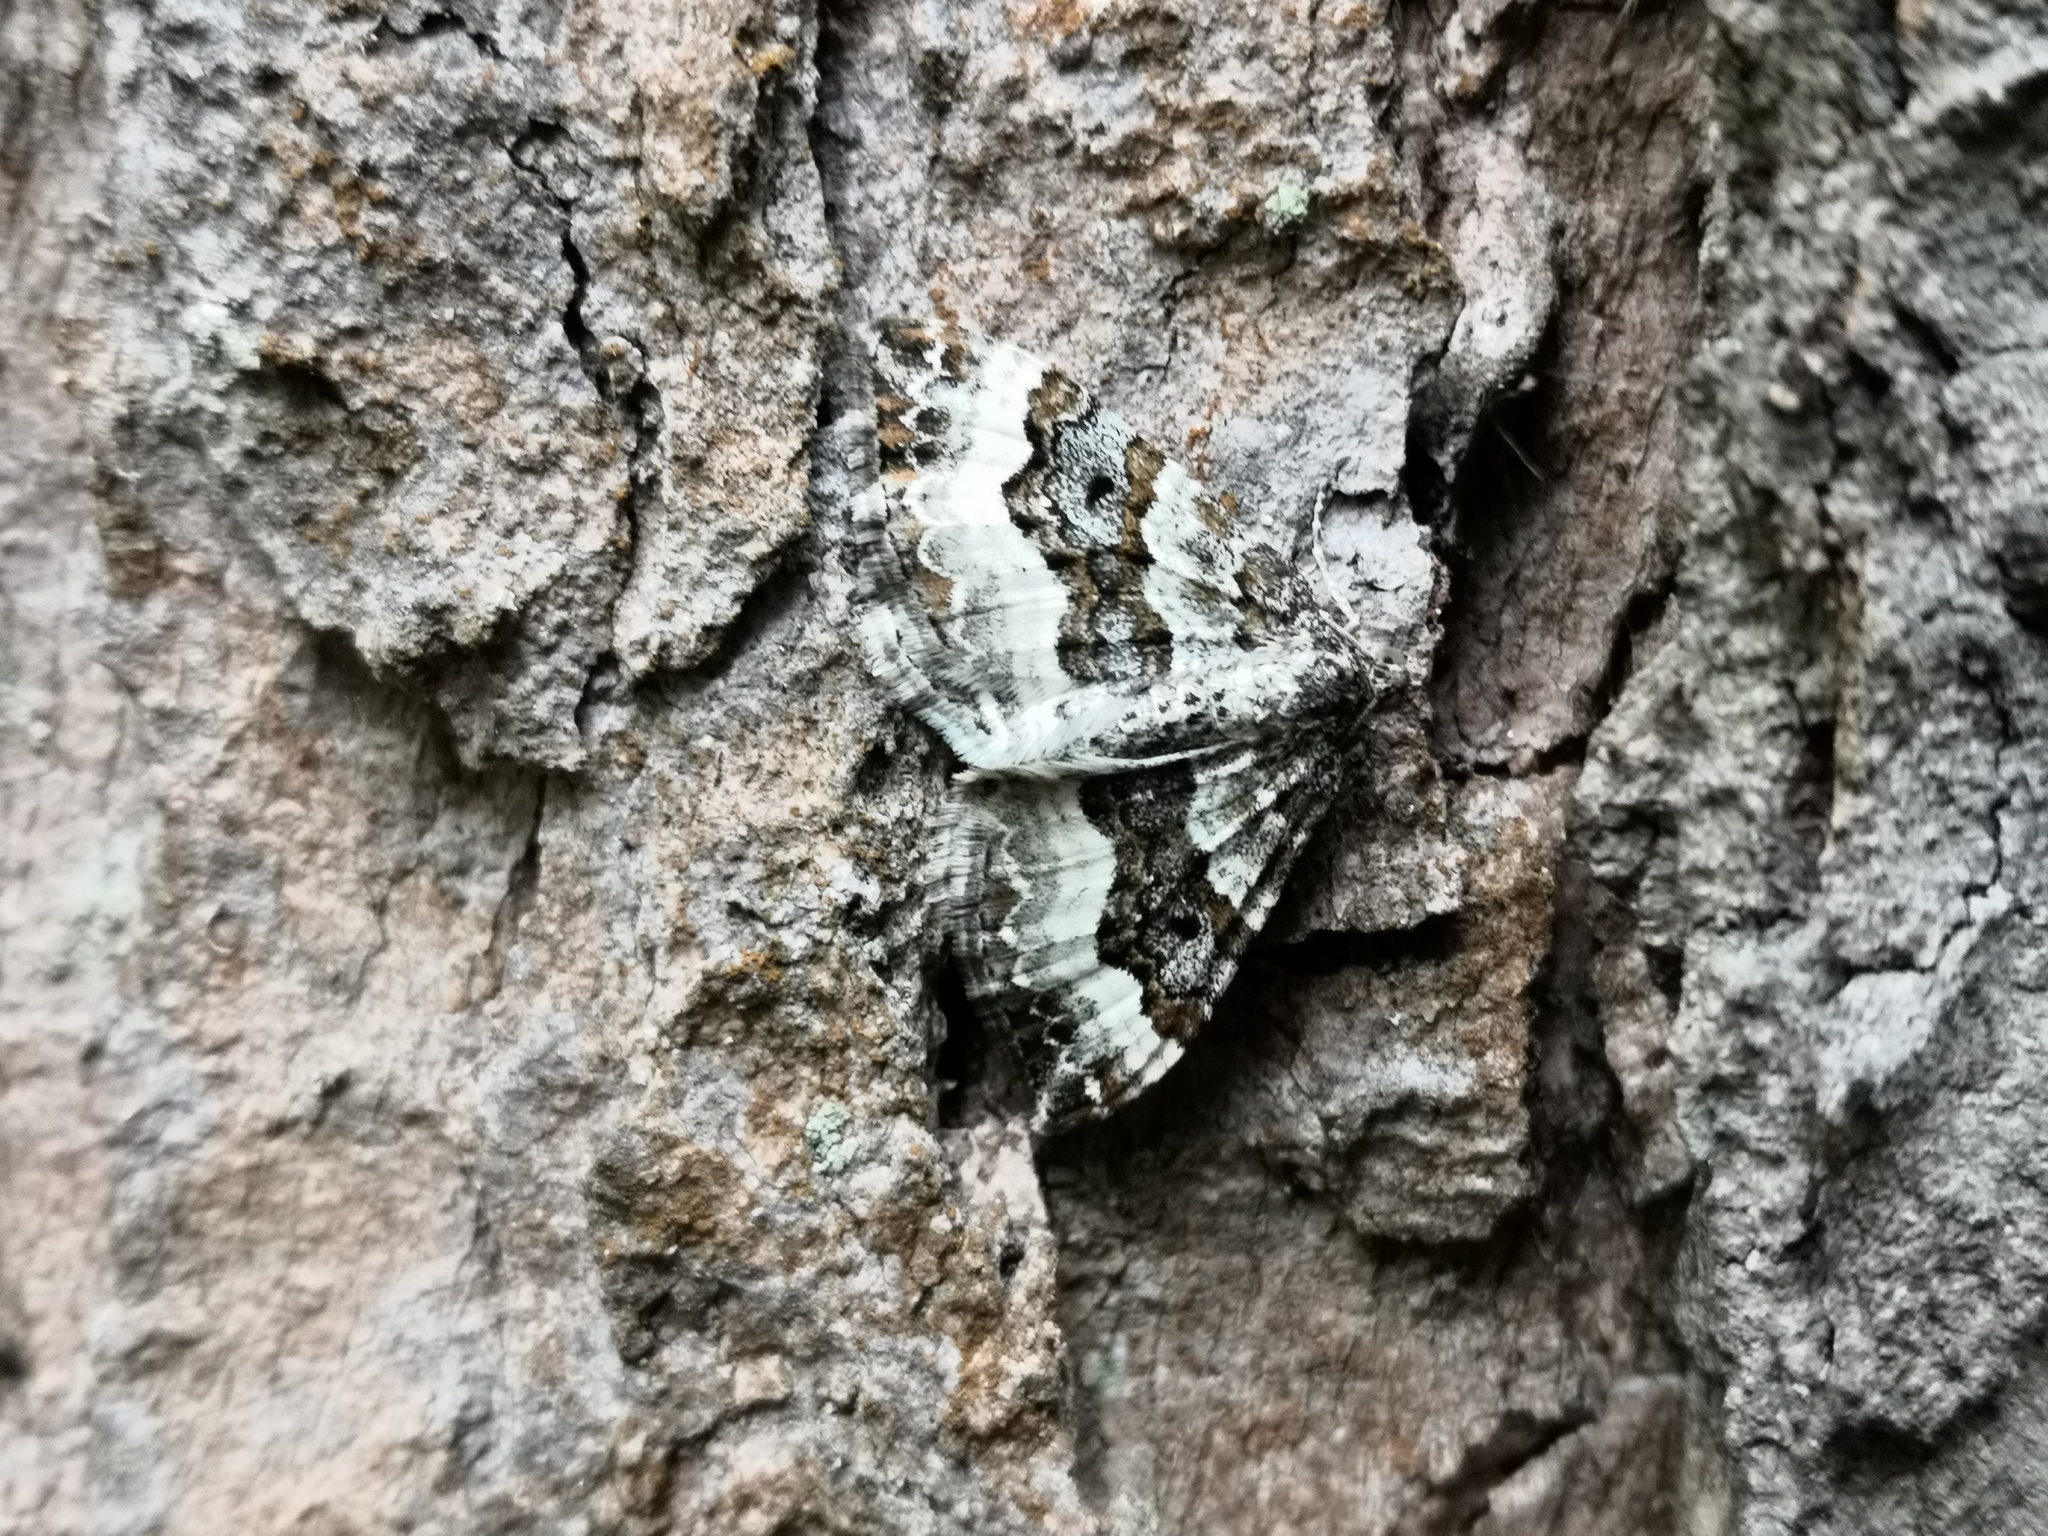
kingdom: Animalia
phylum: Arthropoda
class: Insecta
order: Lepidoptera
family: Geometridae
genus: Epirrhoe
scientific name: Epirrhoe alternata
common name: Common carpet
